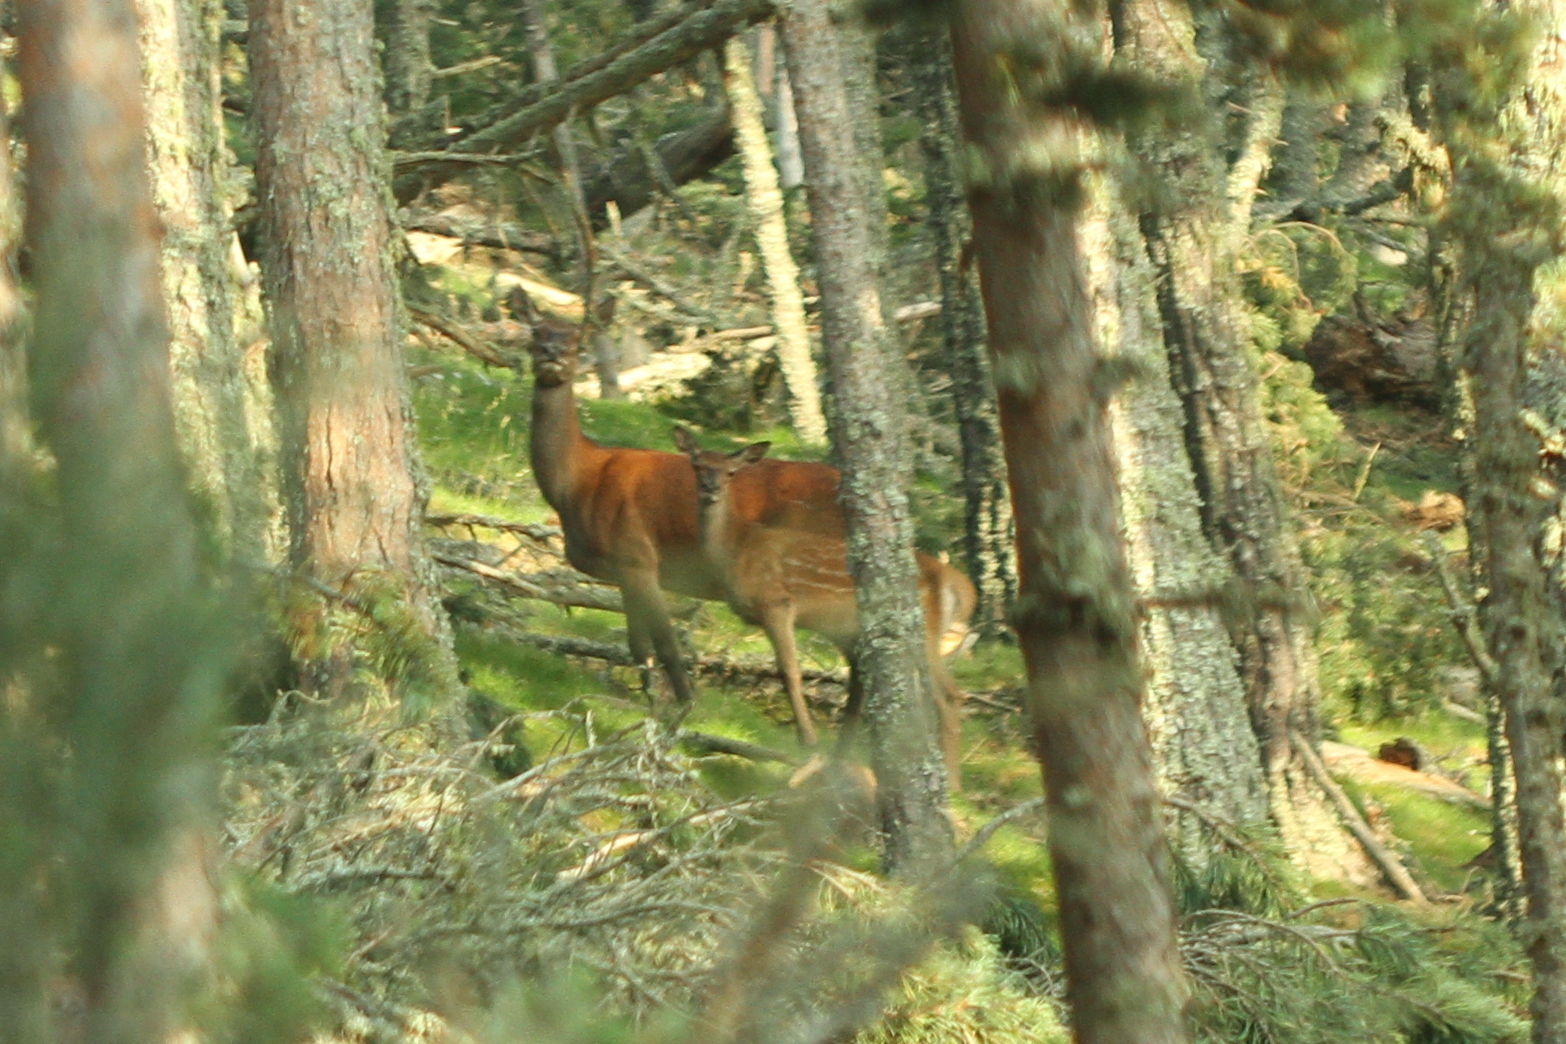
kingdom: Animalia
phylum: Chordata
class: Mammalia
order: Artiodactyla
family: Cervidae
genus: Cervus
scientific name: Cervus elaphus
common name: Red deer
